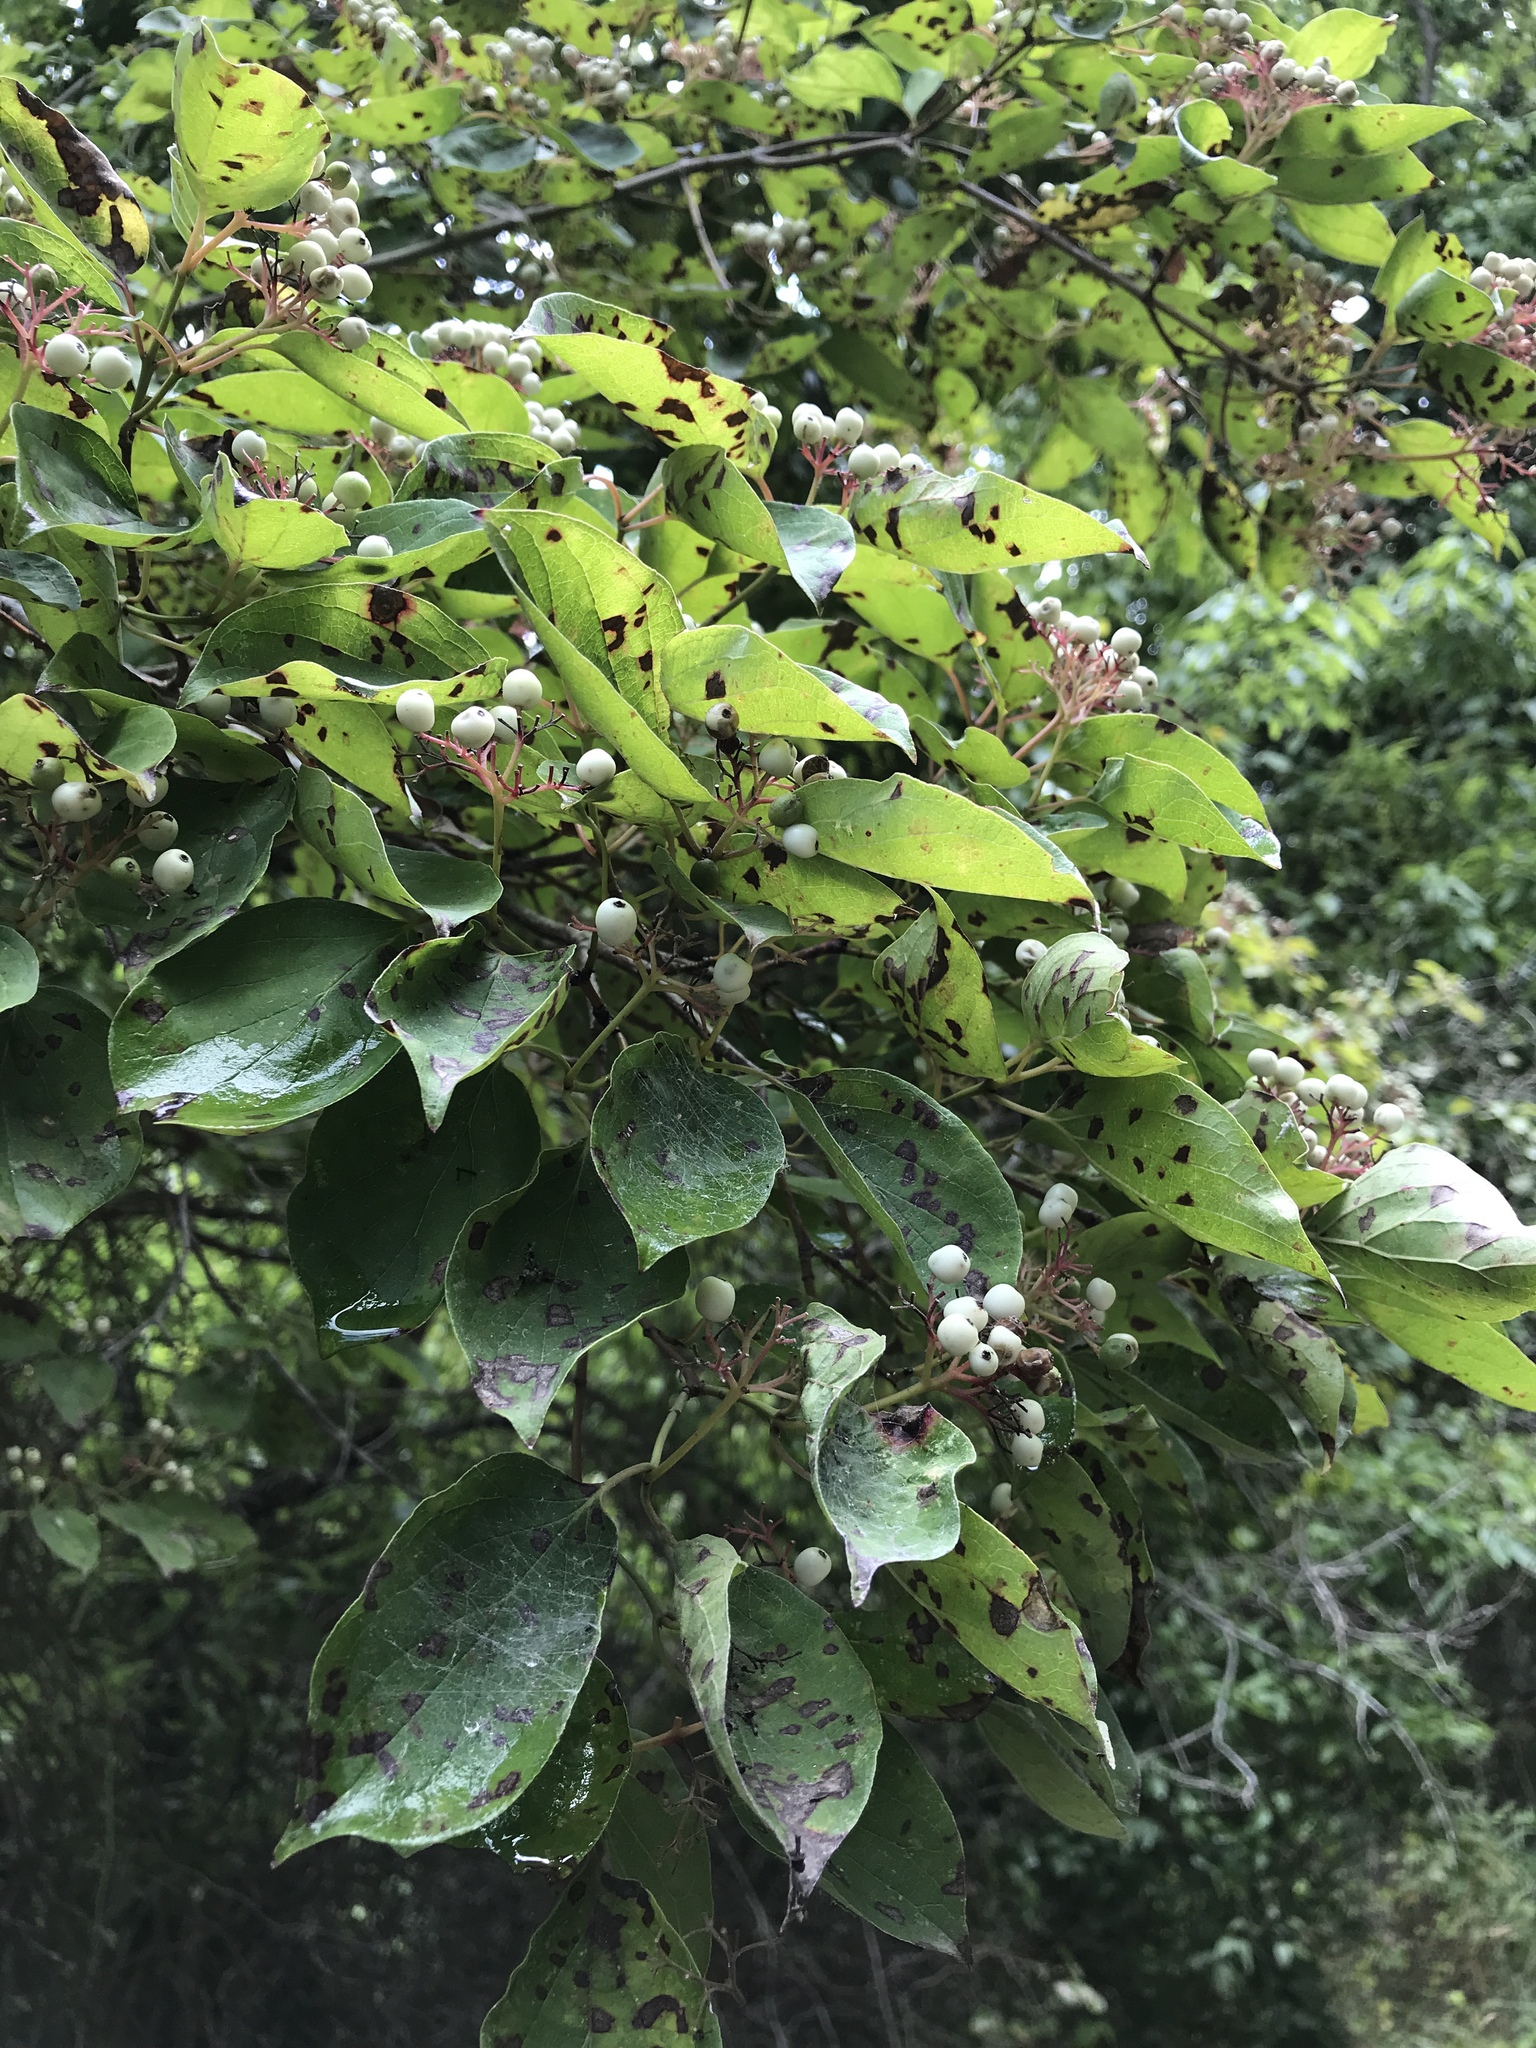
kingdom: Plantae
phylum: Tracheophyta
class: Magnoliopsida
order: Cornales
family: Cornaceae
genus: Cornus
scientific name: Cornus drummondii
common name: Rough-leaf dogwood
